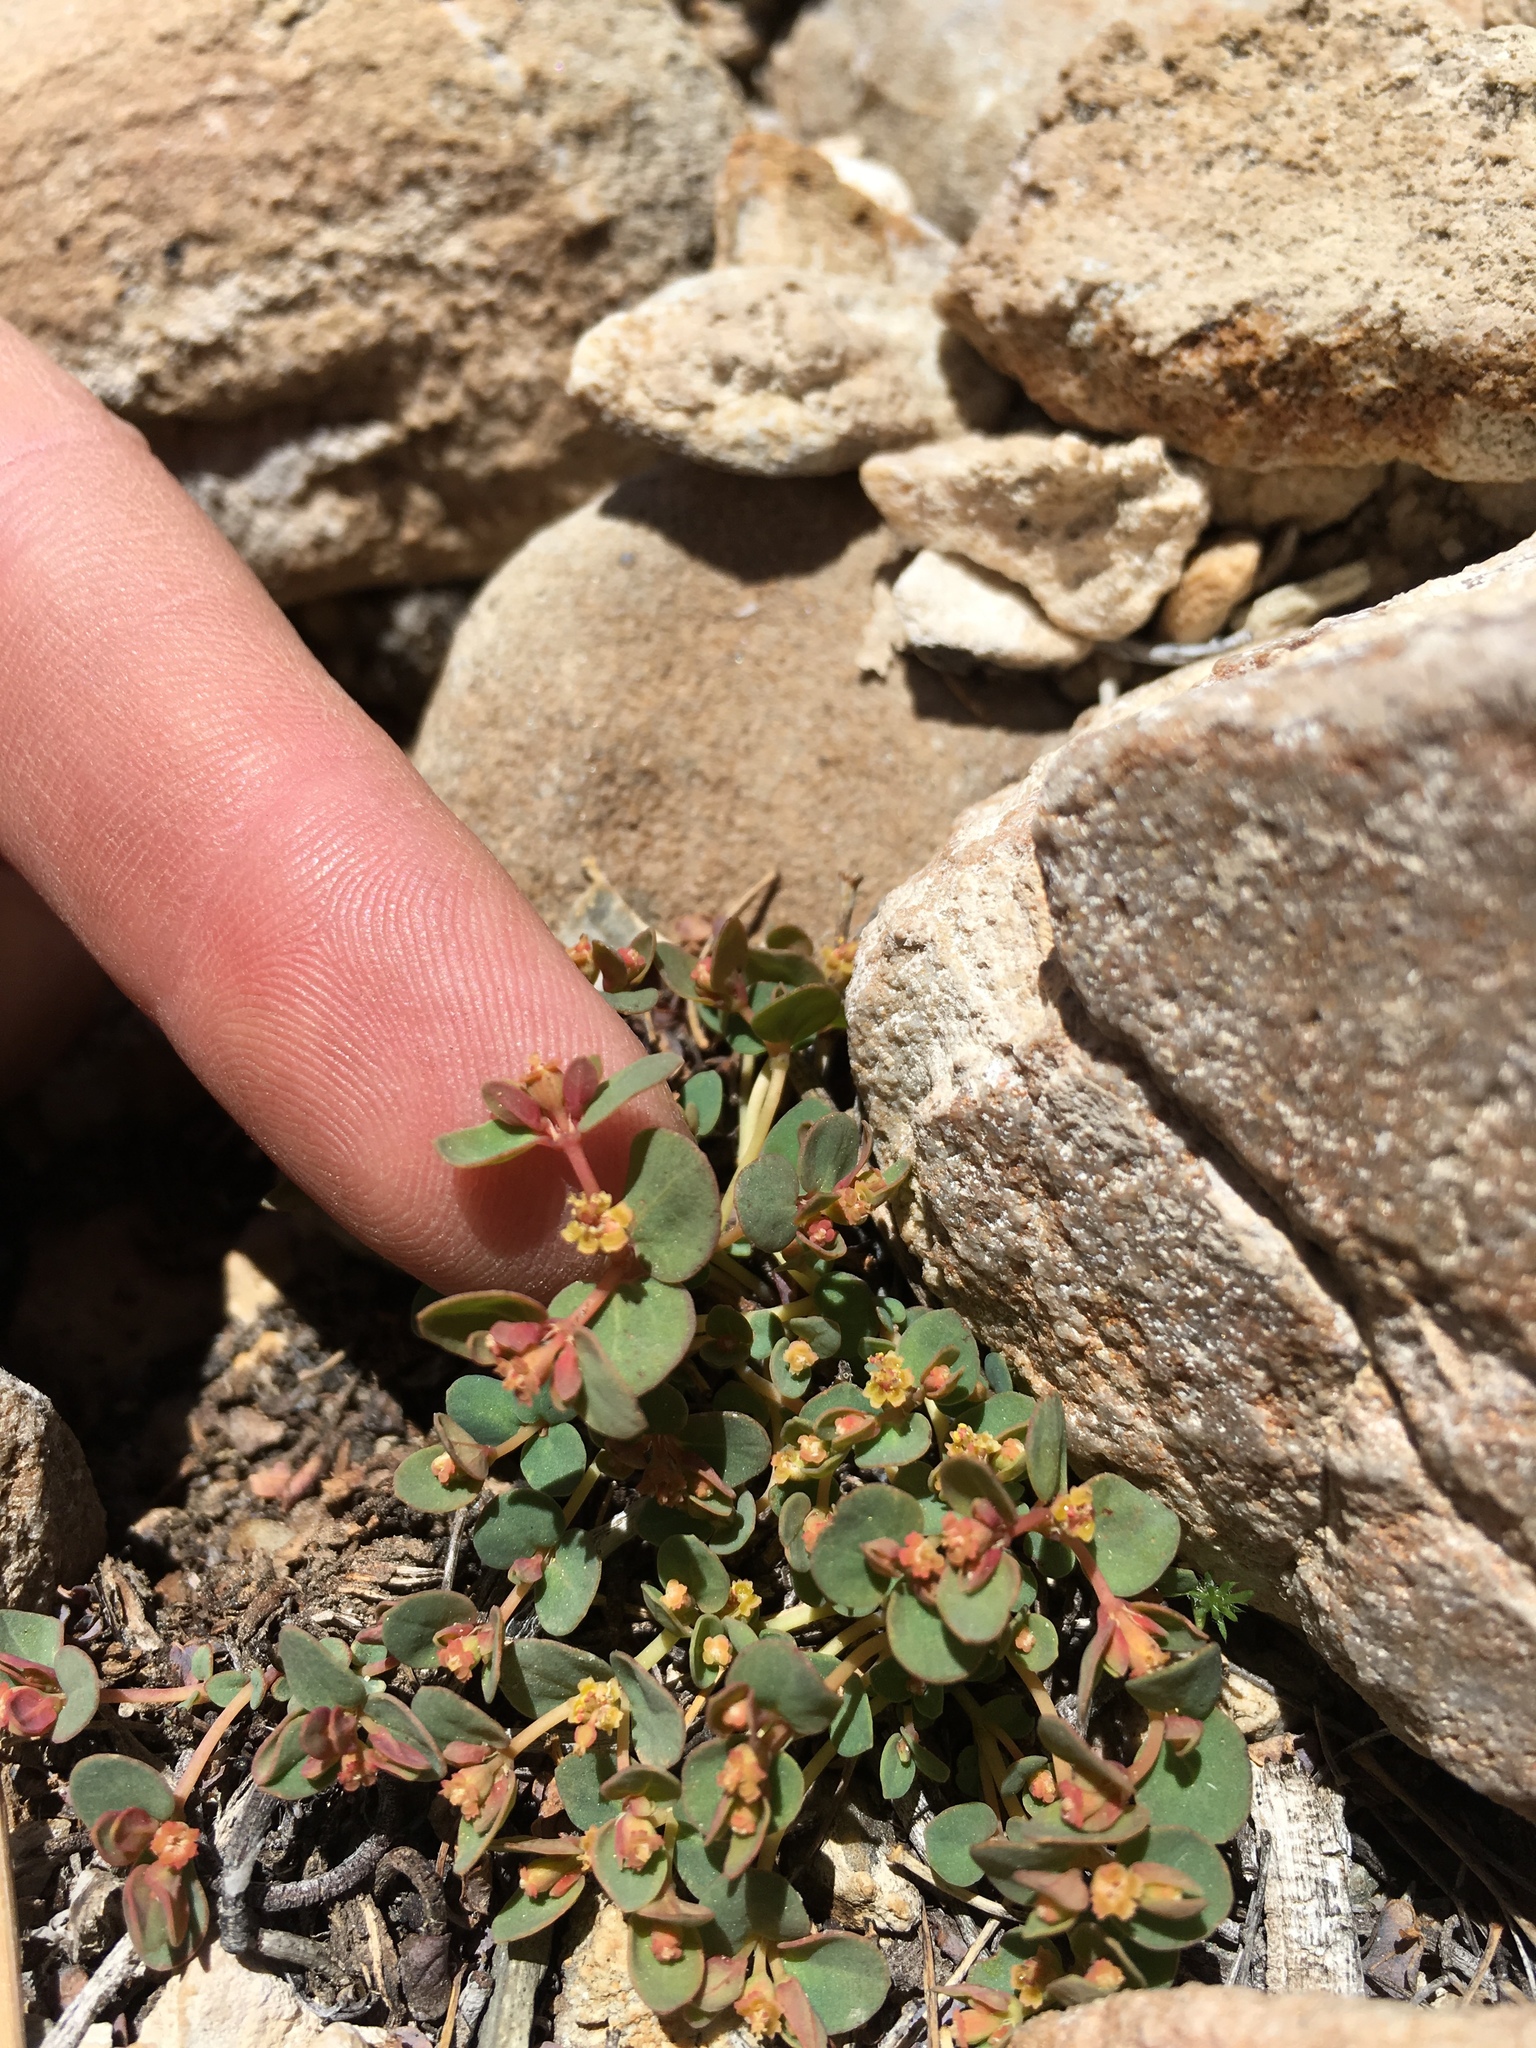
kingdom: Plantae
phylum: Tracheophyta
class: Magnoliopsida
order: Malpighiales
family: Euphorbiaceae
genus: Euphorbia
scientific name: Euphorbia fendleri
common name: Fendler's euphorbia
